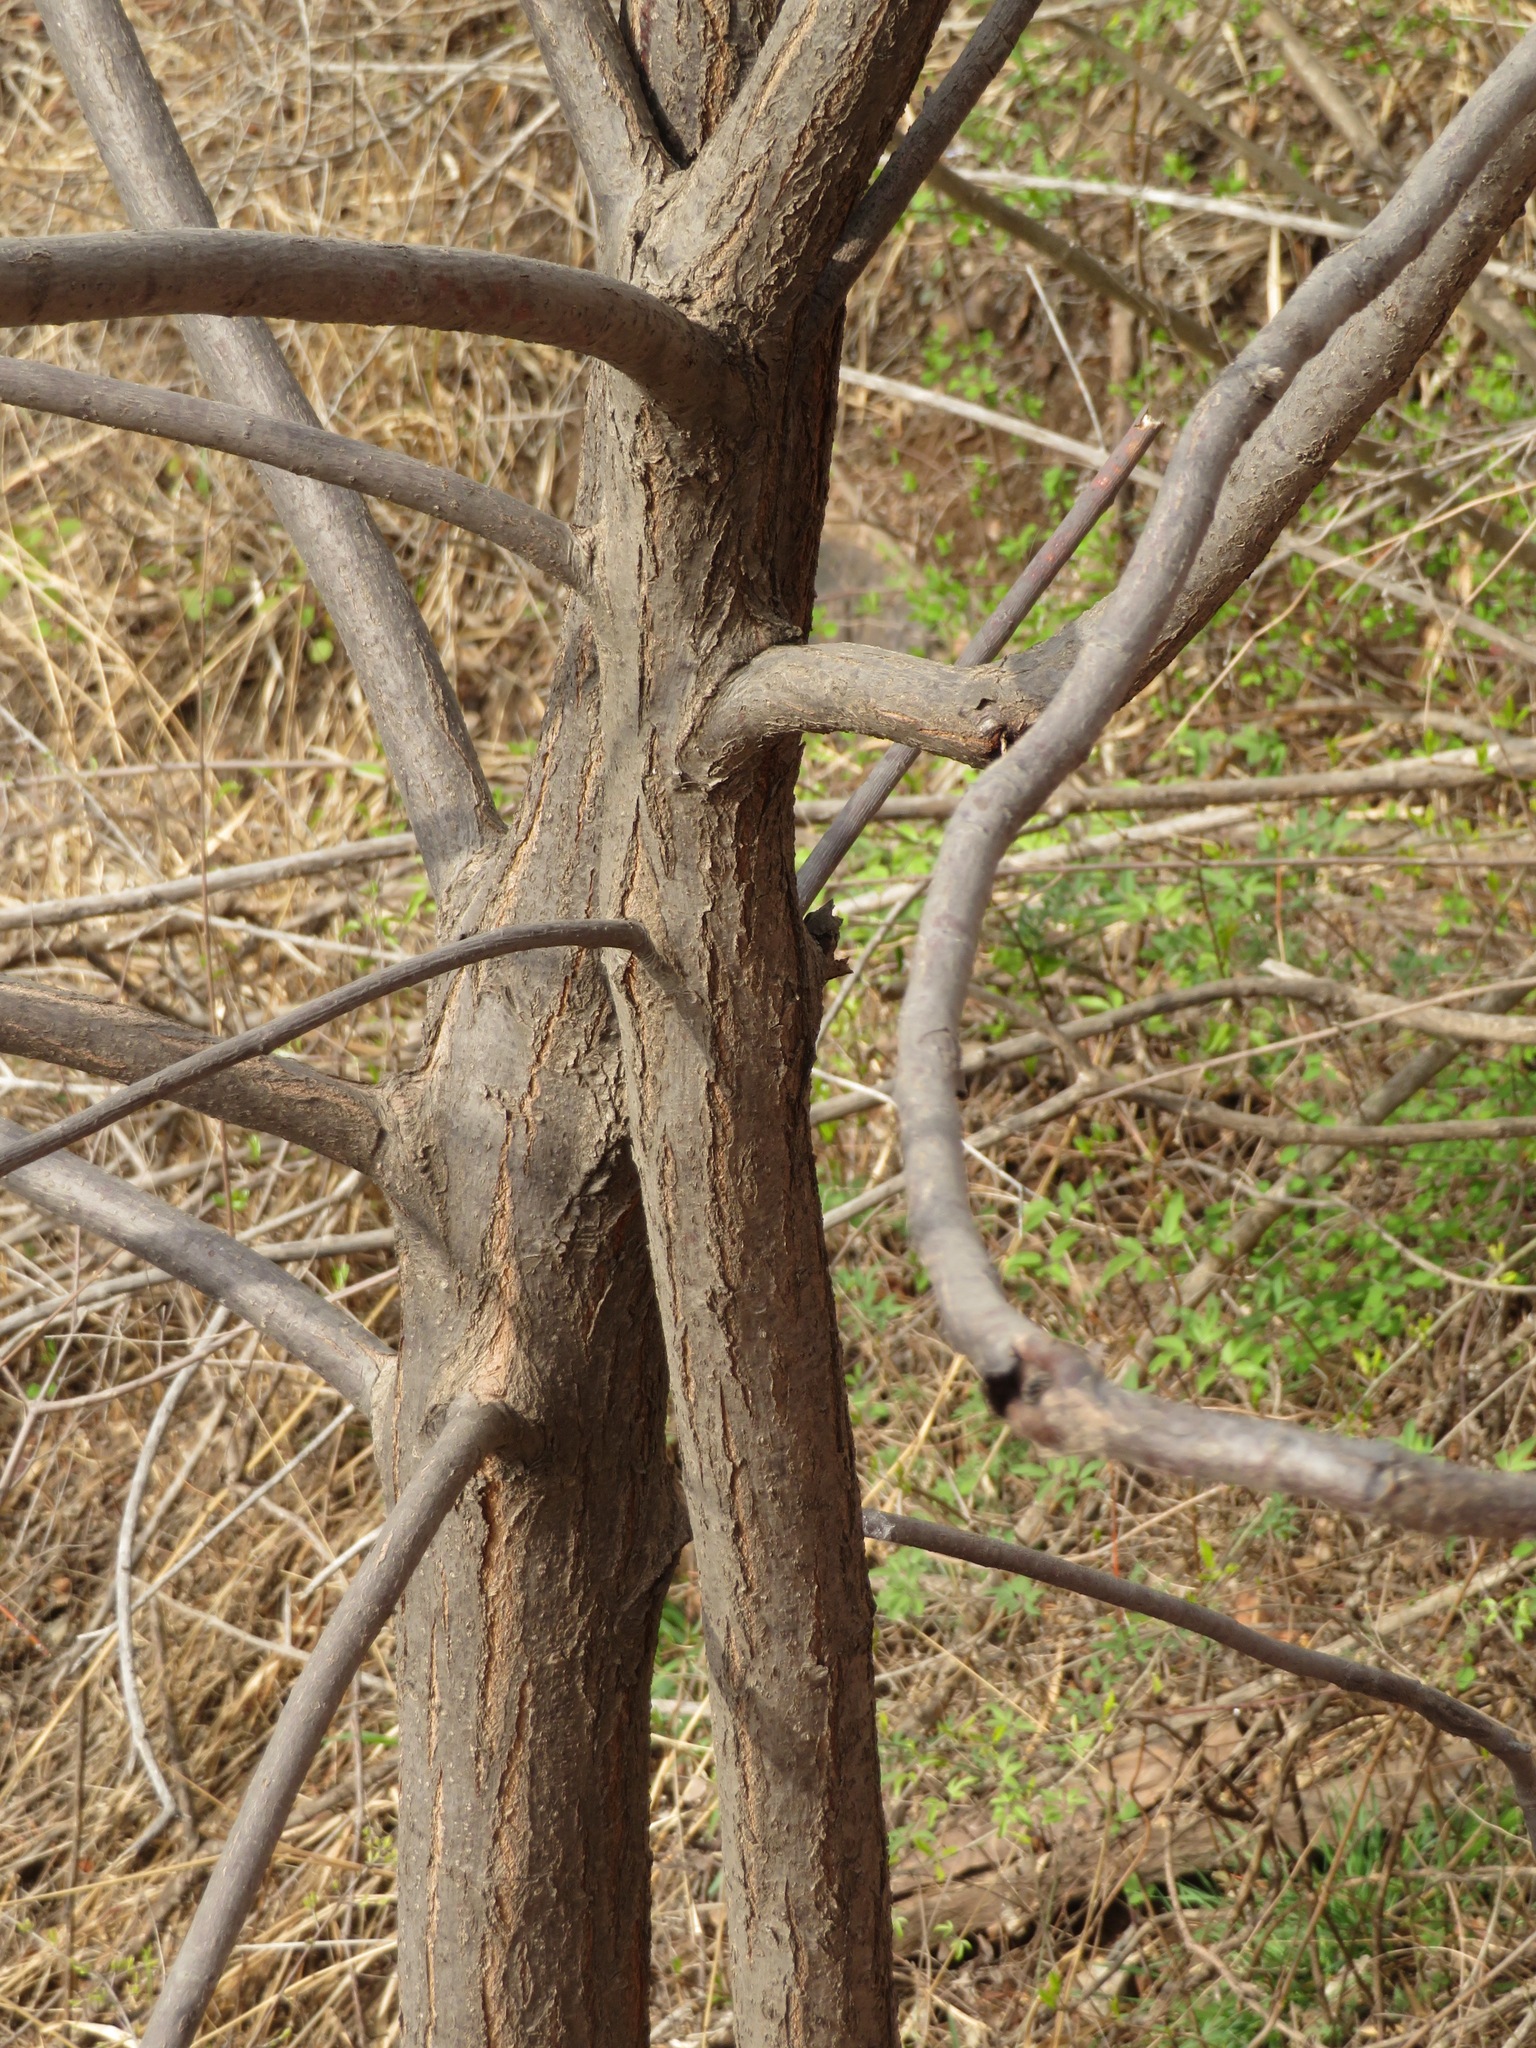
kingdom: Plantae
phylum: Tracheophyta
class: Magnoliopsida
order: Sapindales
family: Meliaceae
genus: Melia
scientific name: Melia azedarach
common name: Chinaberrytree
